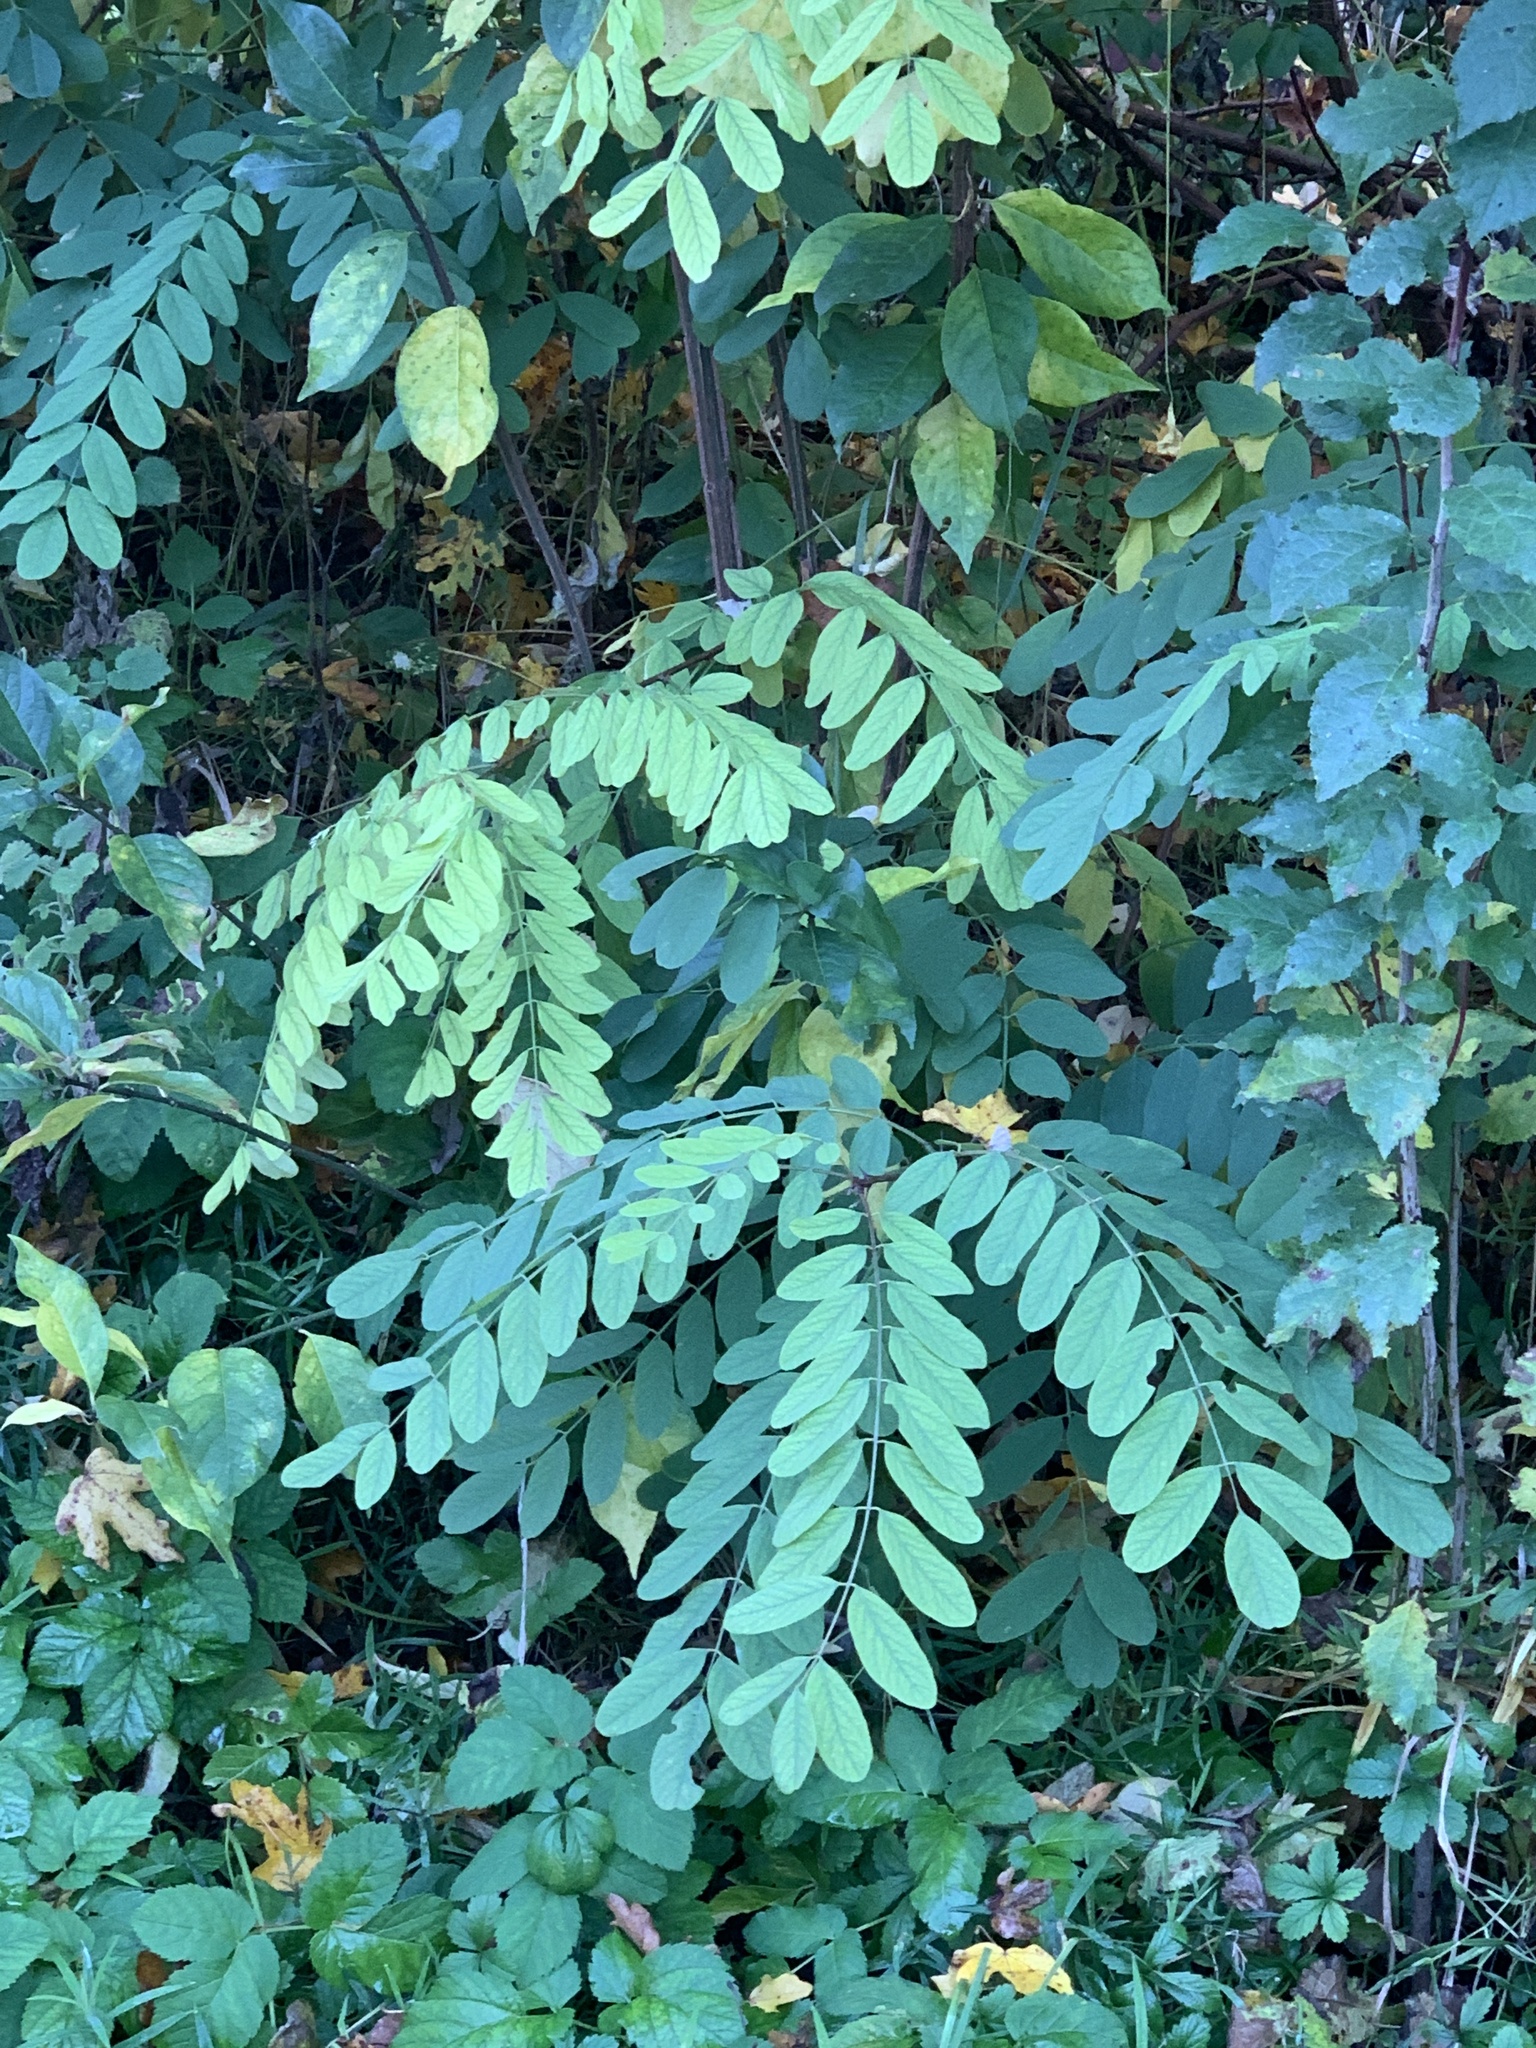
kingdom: Plantae
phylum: Tracheophyta
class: Magnoliopsida
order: Fabales
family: Fabaceae
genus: Robinia
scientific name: Robinia pseudoacacia
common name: Black locust
